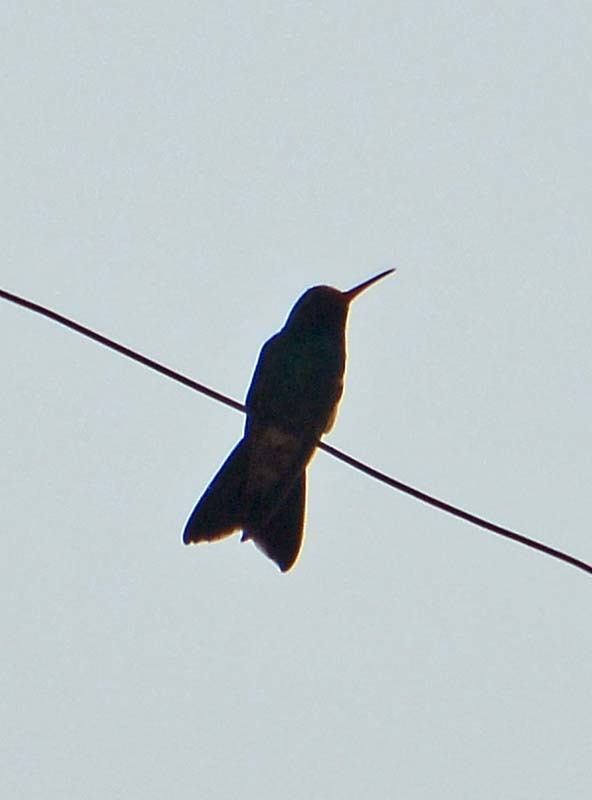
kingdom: Animalia
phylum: Chordata
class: Aves
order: Apodiformes
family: Trochilidae
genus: Cynanthus
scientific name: Cynanthus latirostris
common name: Broad-billed hummingbird
